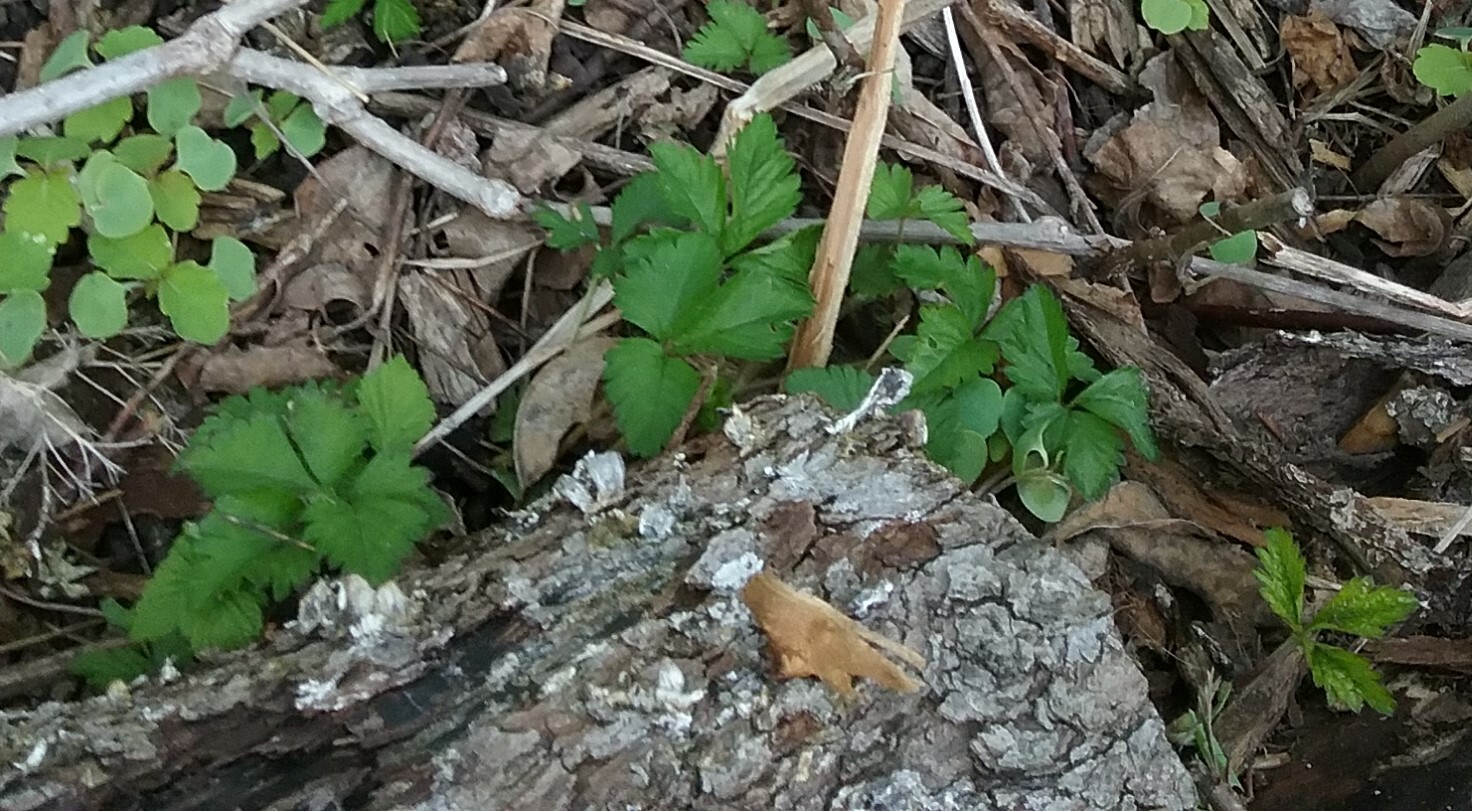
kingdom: Plantae
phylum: Tracheophyta
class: Magnoliopsida
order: Rosales
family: Rosaceae
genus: Potentilla
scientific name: Potentilla indica
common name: Yellow-flowered strawberry
